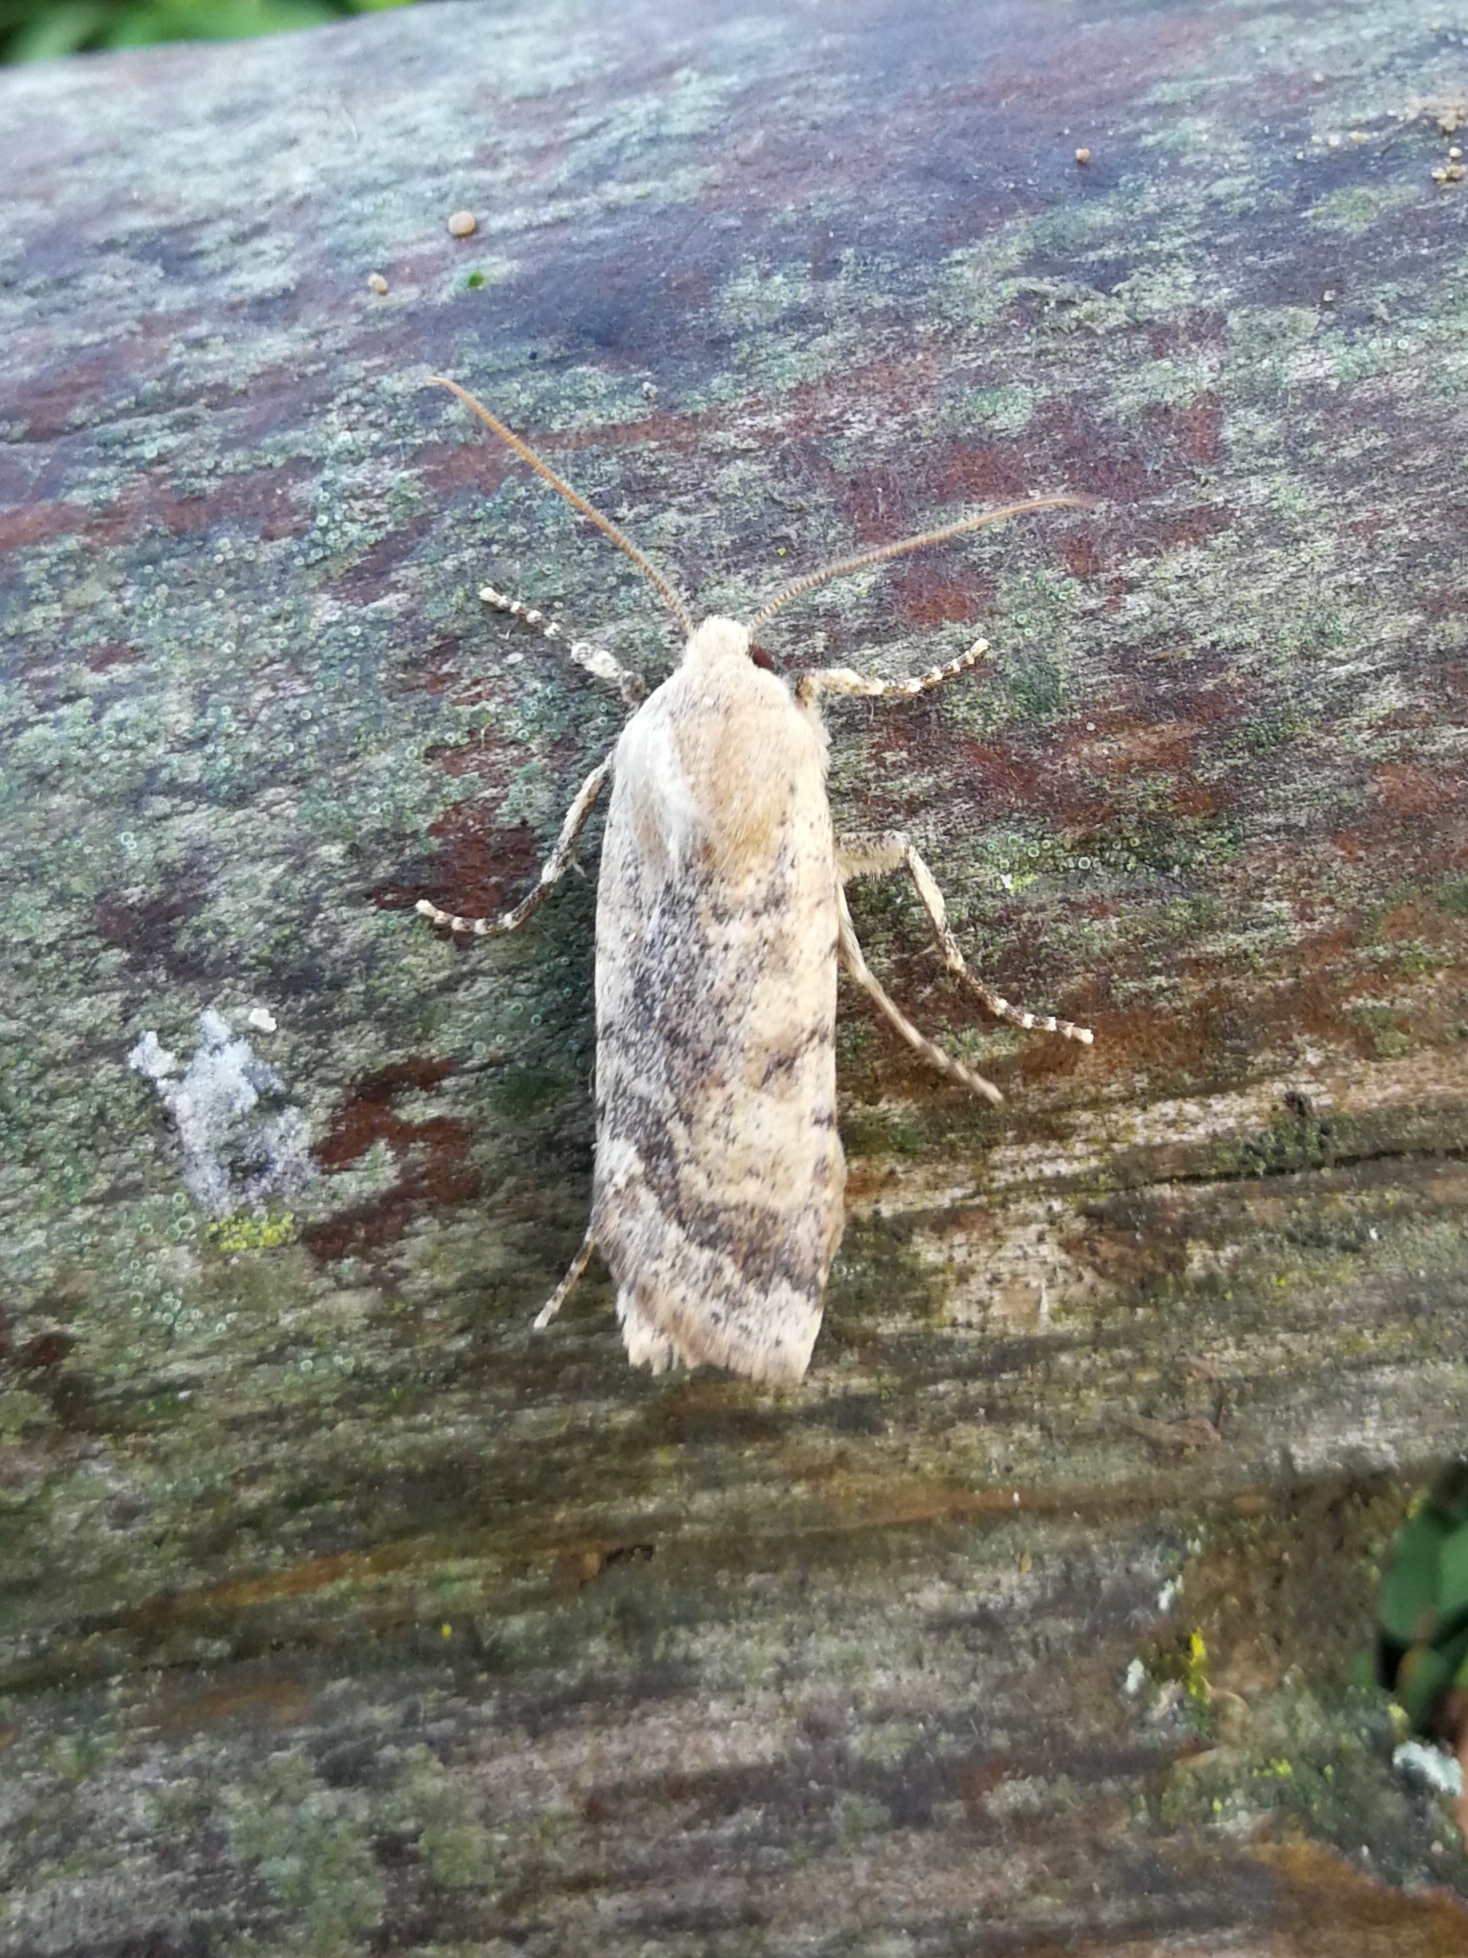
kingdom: Animalia
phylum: Arthropoda
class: Insecta
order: Lepidoptera
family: Noctuidae
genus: Conistra
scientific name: Conistra daubei
